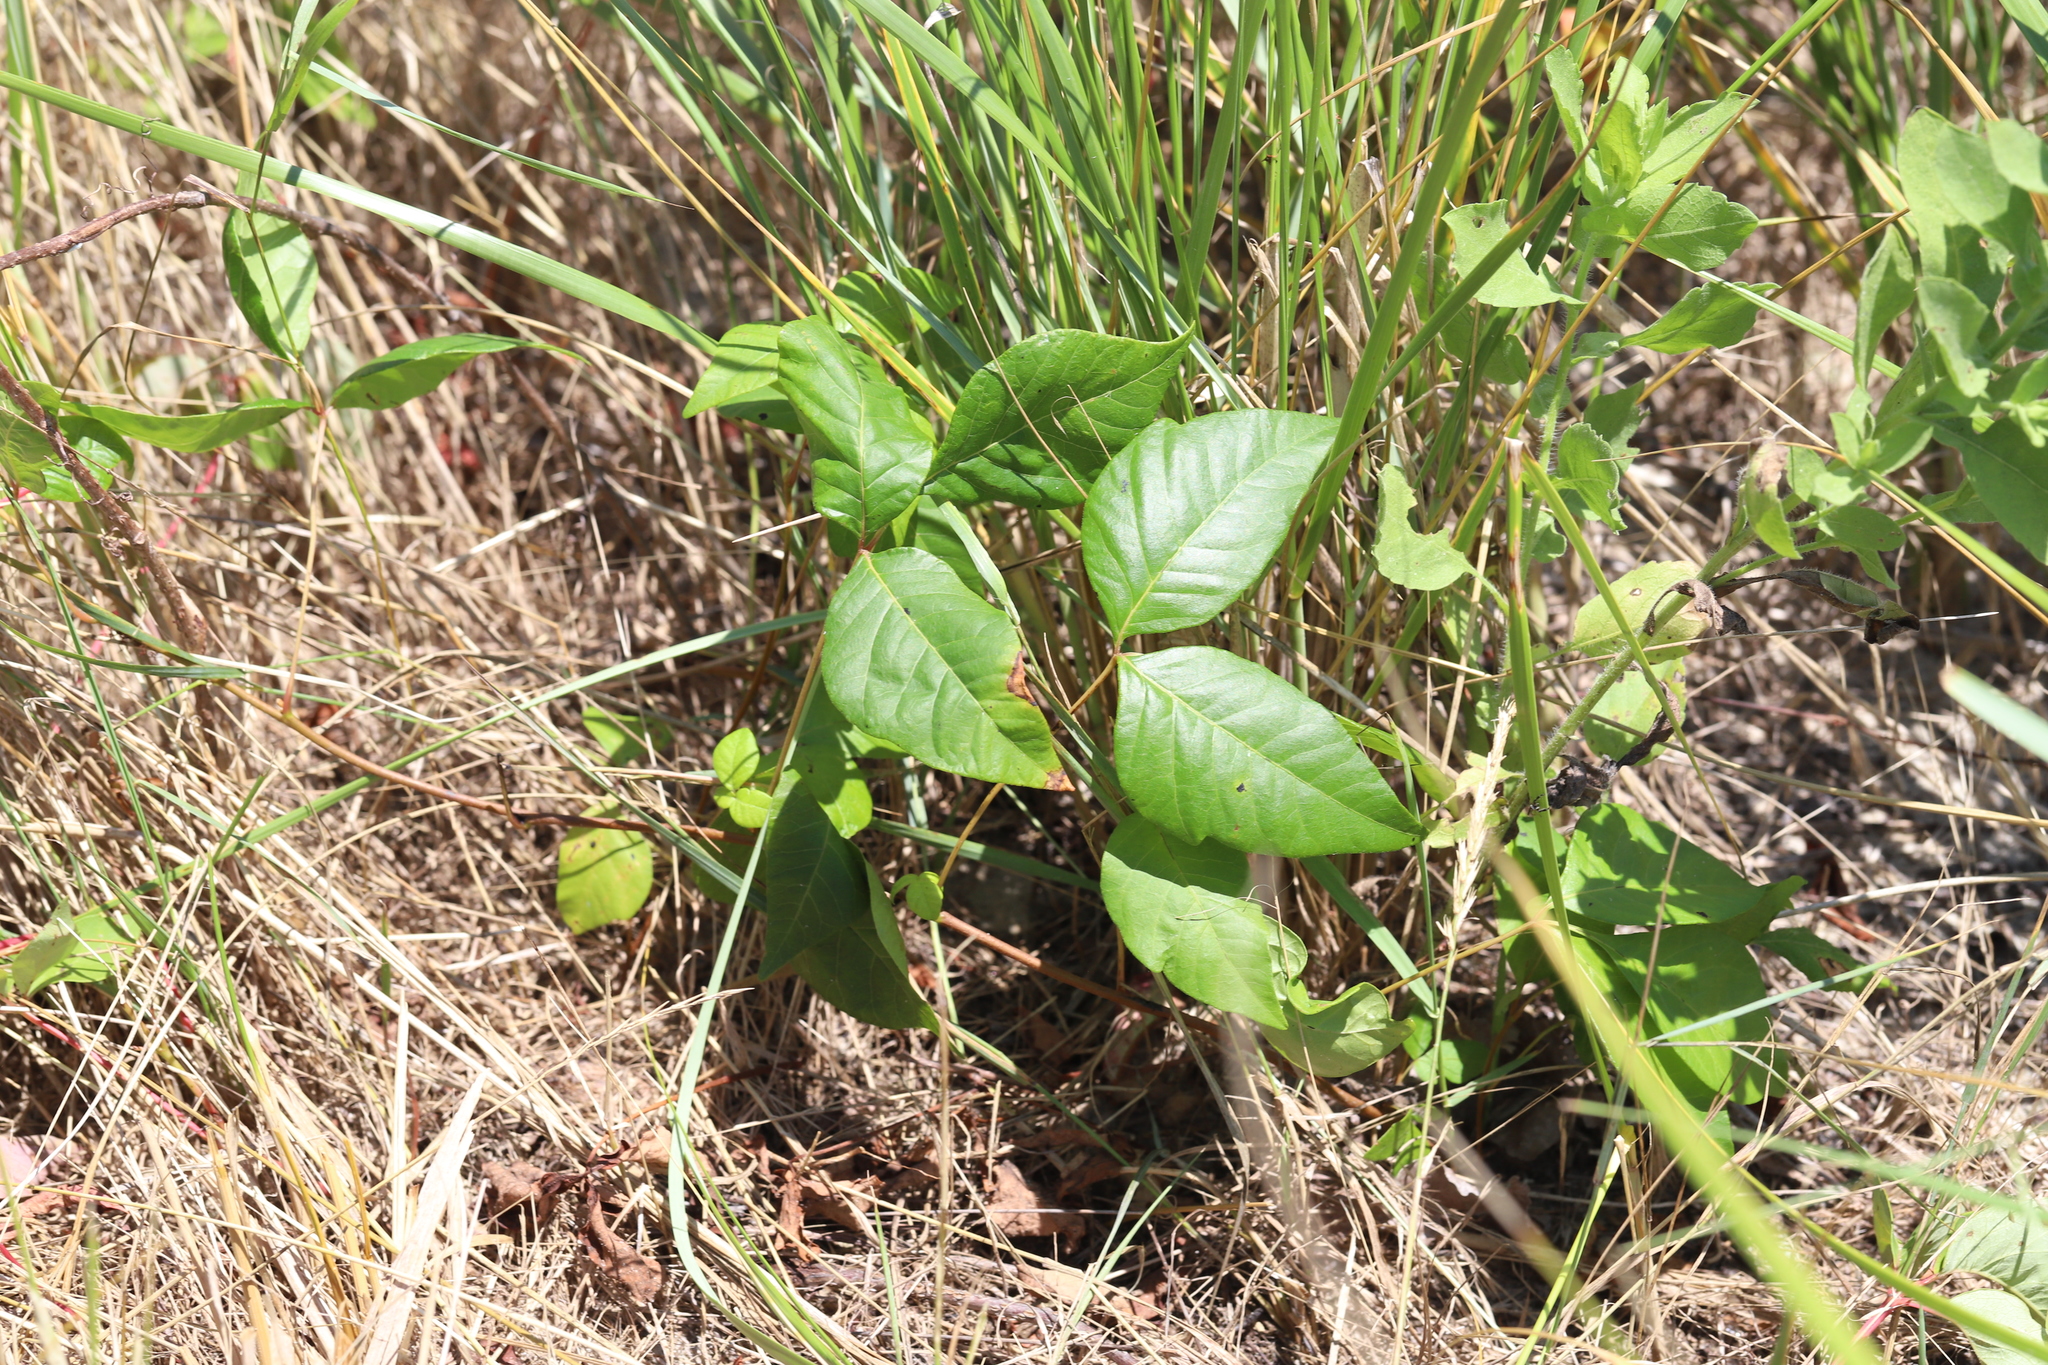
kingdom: Plantae
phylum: Tracheophyta
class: Magnoliopsida
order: Sapindales
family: Anacardiaceae
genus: Toxicodendron
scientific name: Toxicodendron radicans
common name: Poison ivy
